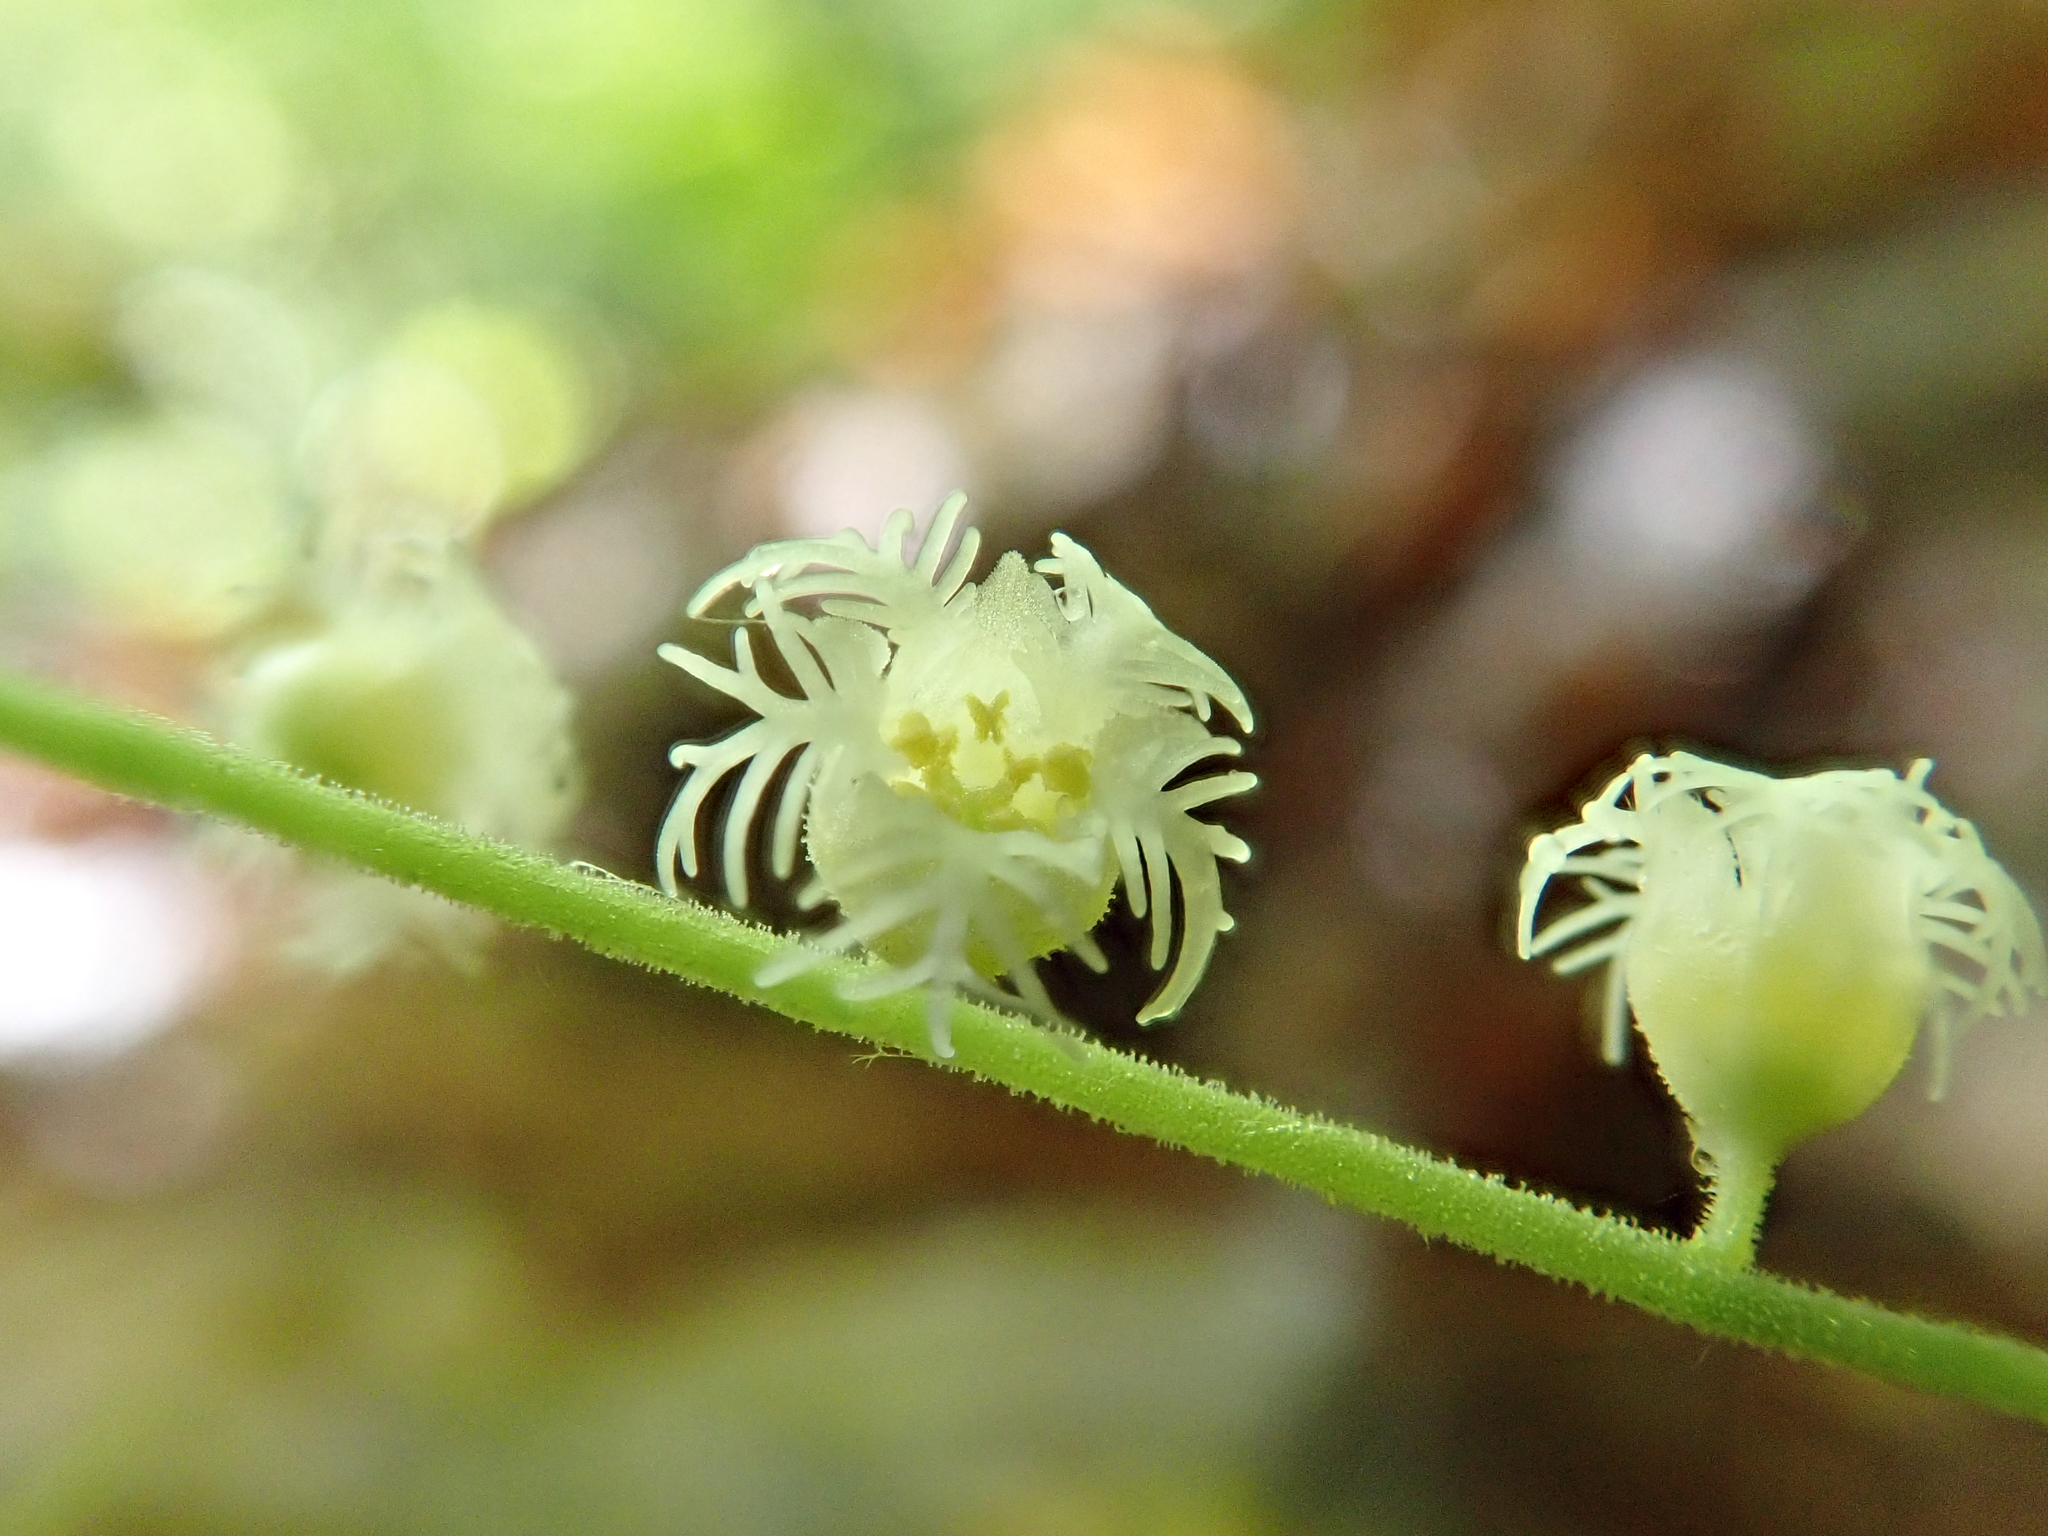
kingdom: Plantae
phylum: Tracheophyta
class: Magnoliopsida
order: Saxifragales
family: Saxifragaceae
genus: Mitella
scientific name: Mitella diphylla
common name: Coolwort
